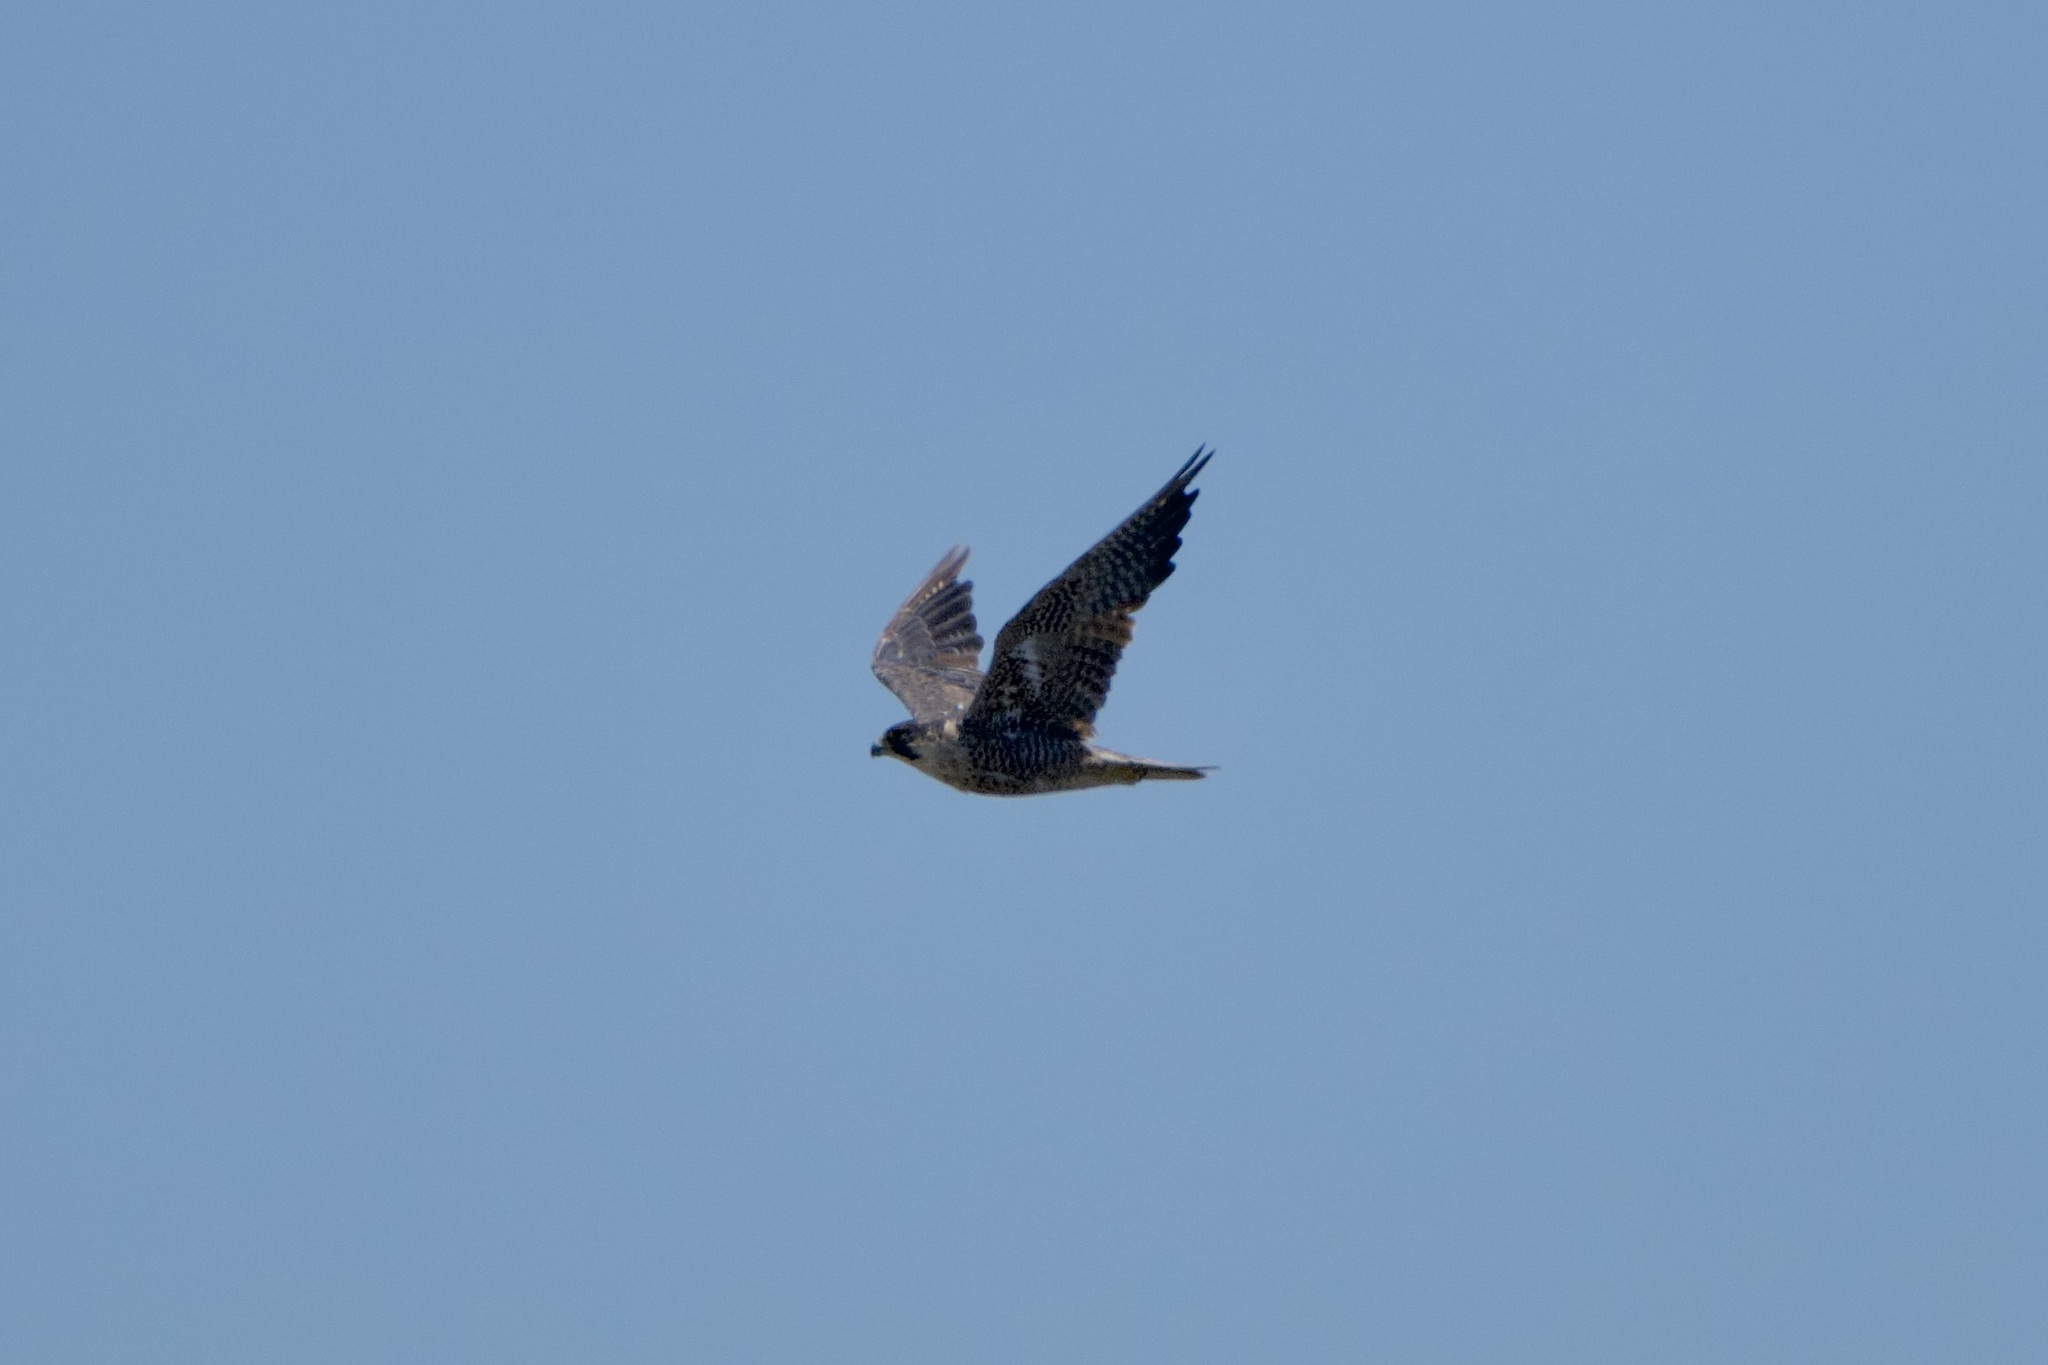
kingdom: Animalia
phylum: Chordata
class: Aves
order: Falconiformes
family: Falconidae
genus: Falco
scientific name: Falco peregrinus
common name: Peregrine falcon
